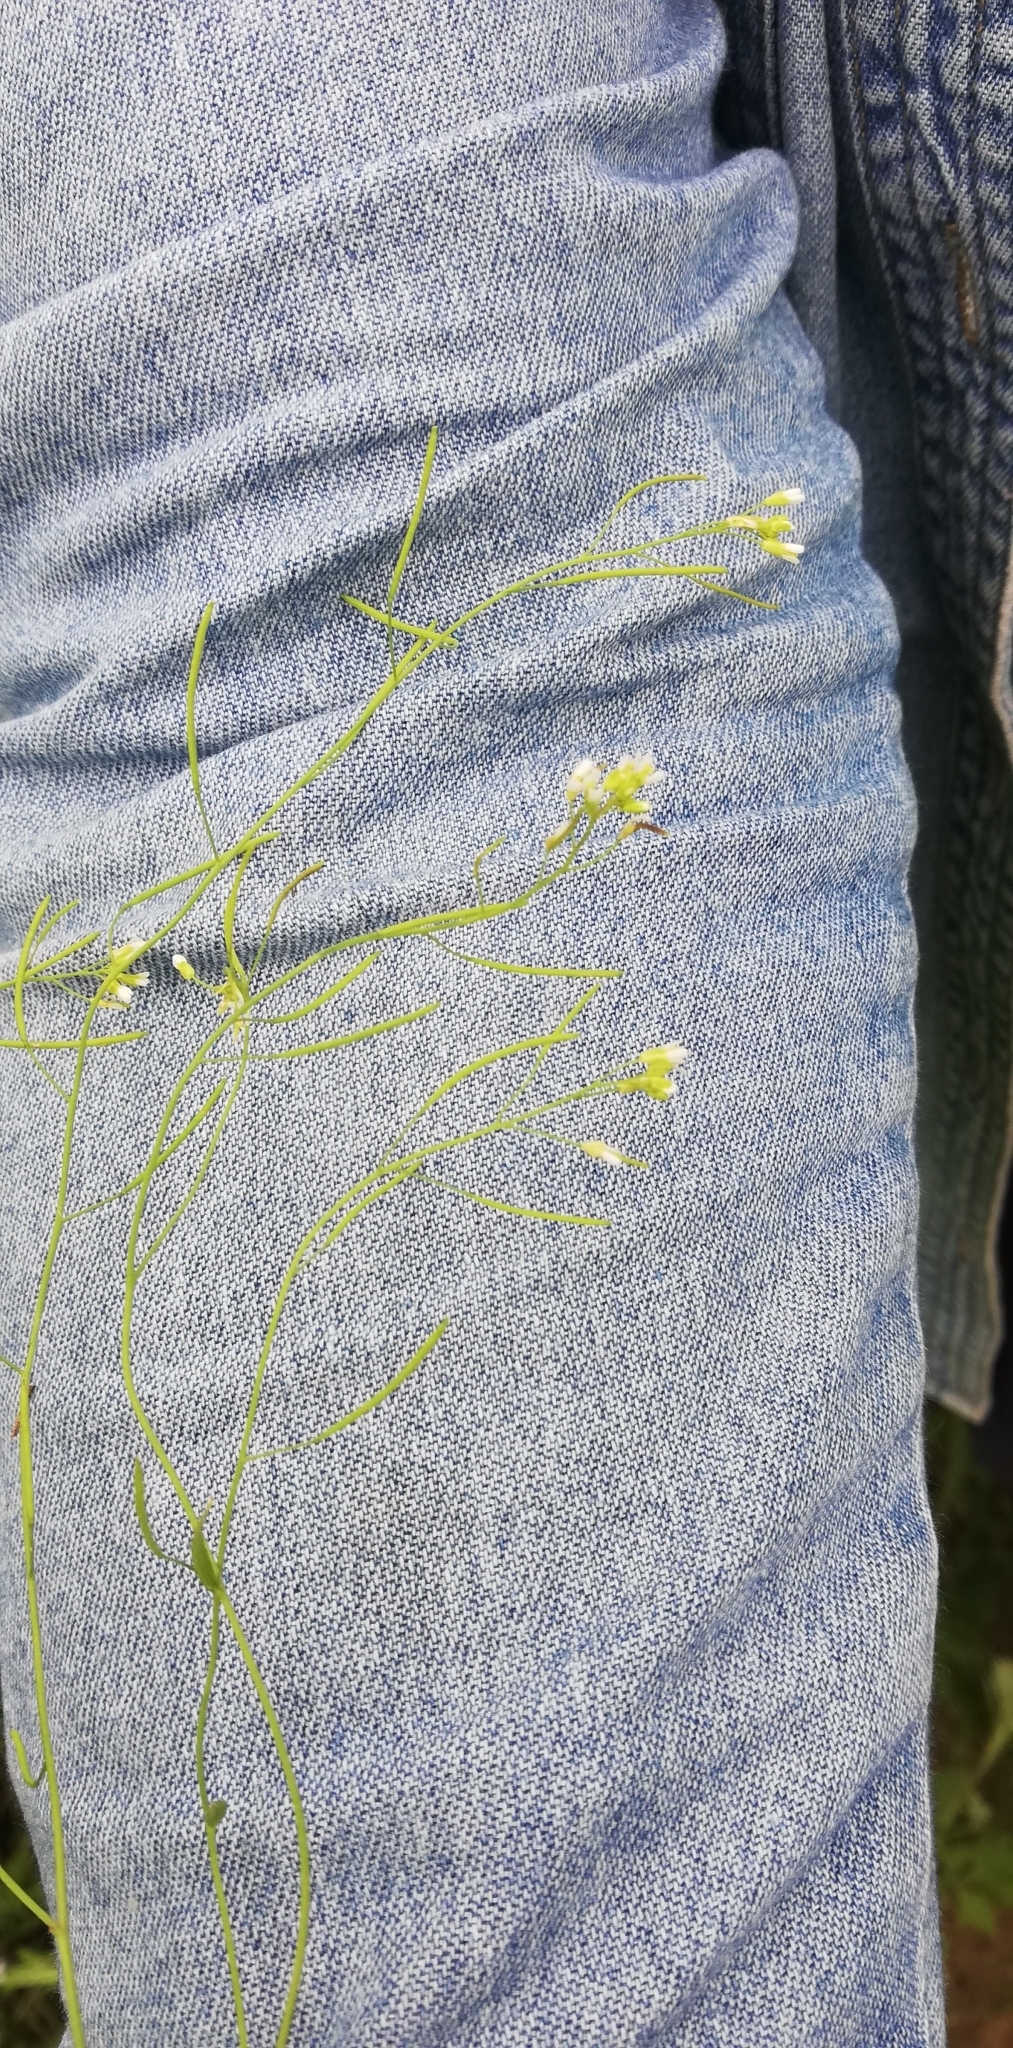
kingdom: Plantae
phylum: Tracheophyta
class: Magnoliopsida
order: Brassicales
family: Brassicaceae
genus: Arabidopsis
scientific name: Arabidopsis thaliana
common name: Thale cress
